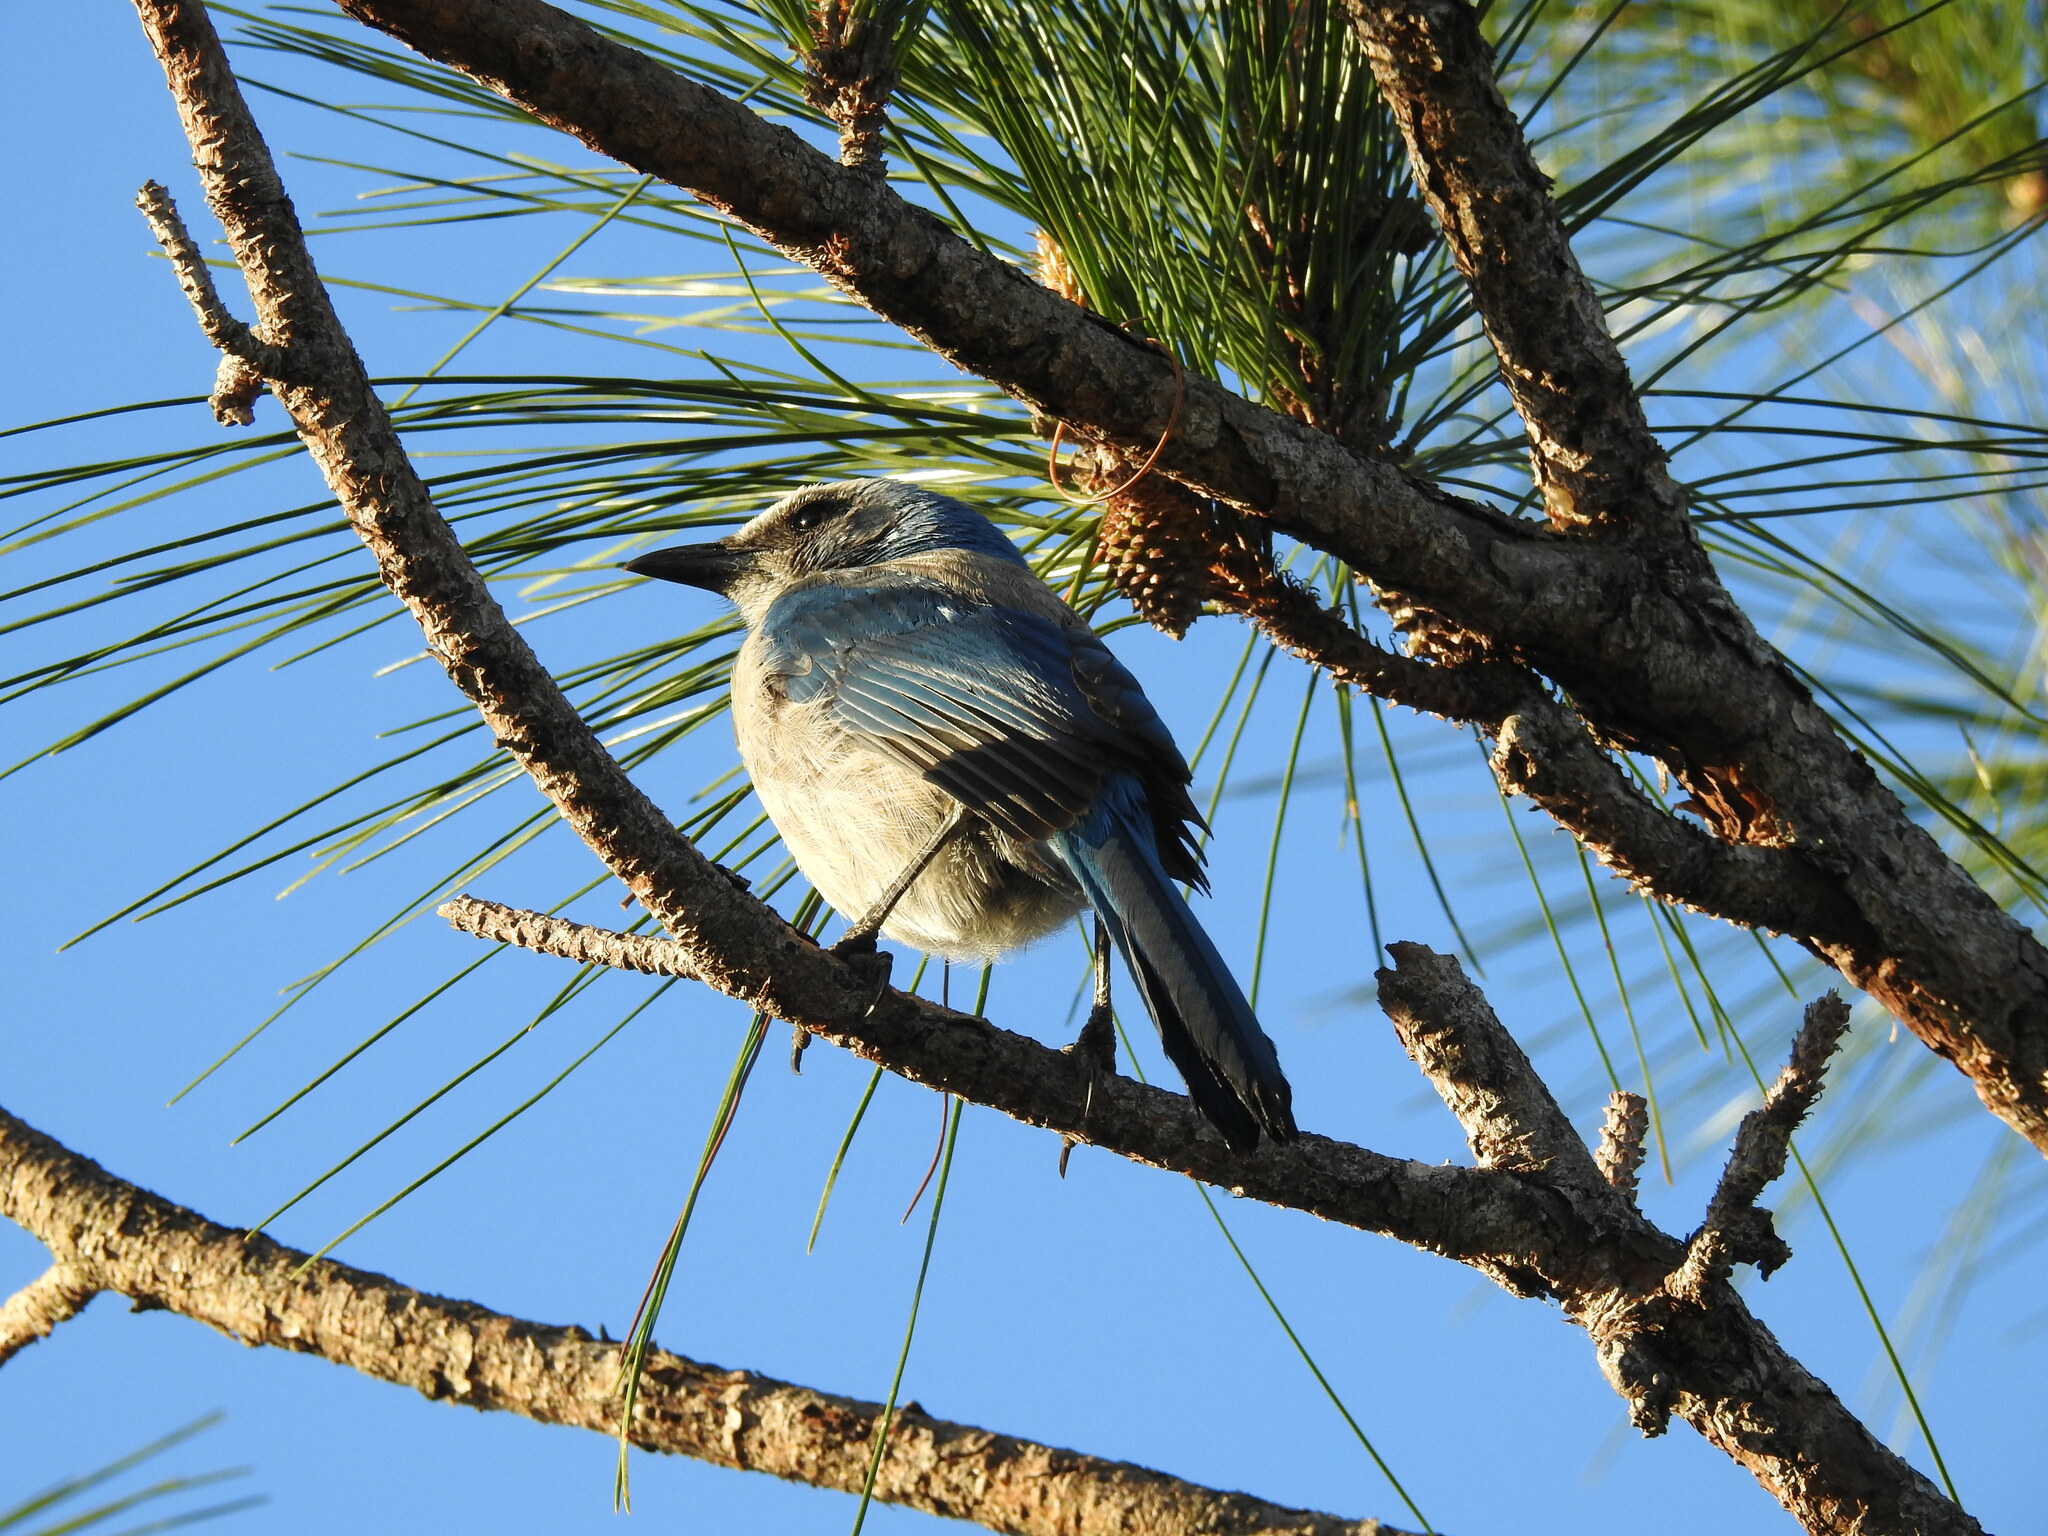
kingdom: Animalia
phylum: Chordata
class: Aves
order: Passeriformes
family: Corvidae
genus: Aphelocoma
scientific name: Aphelocoma coerulescens
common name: Florida scrub jay
